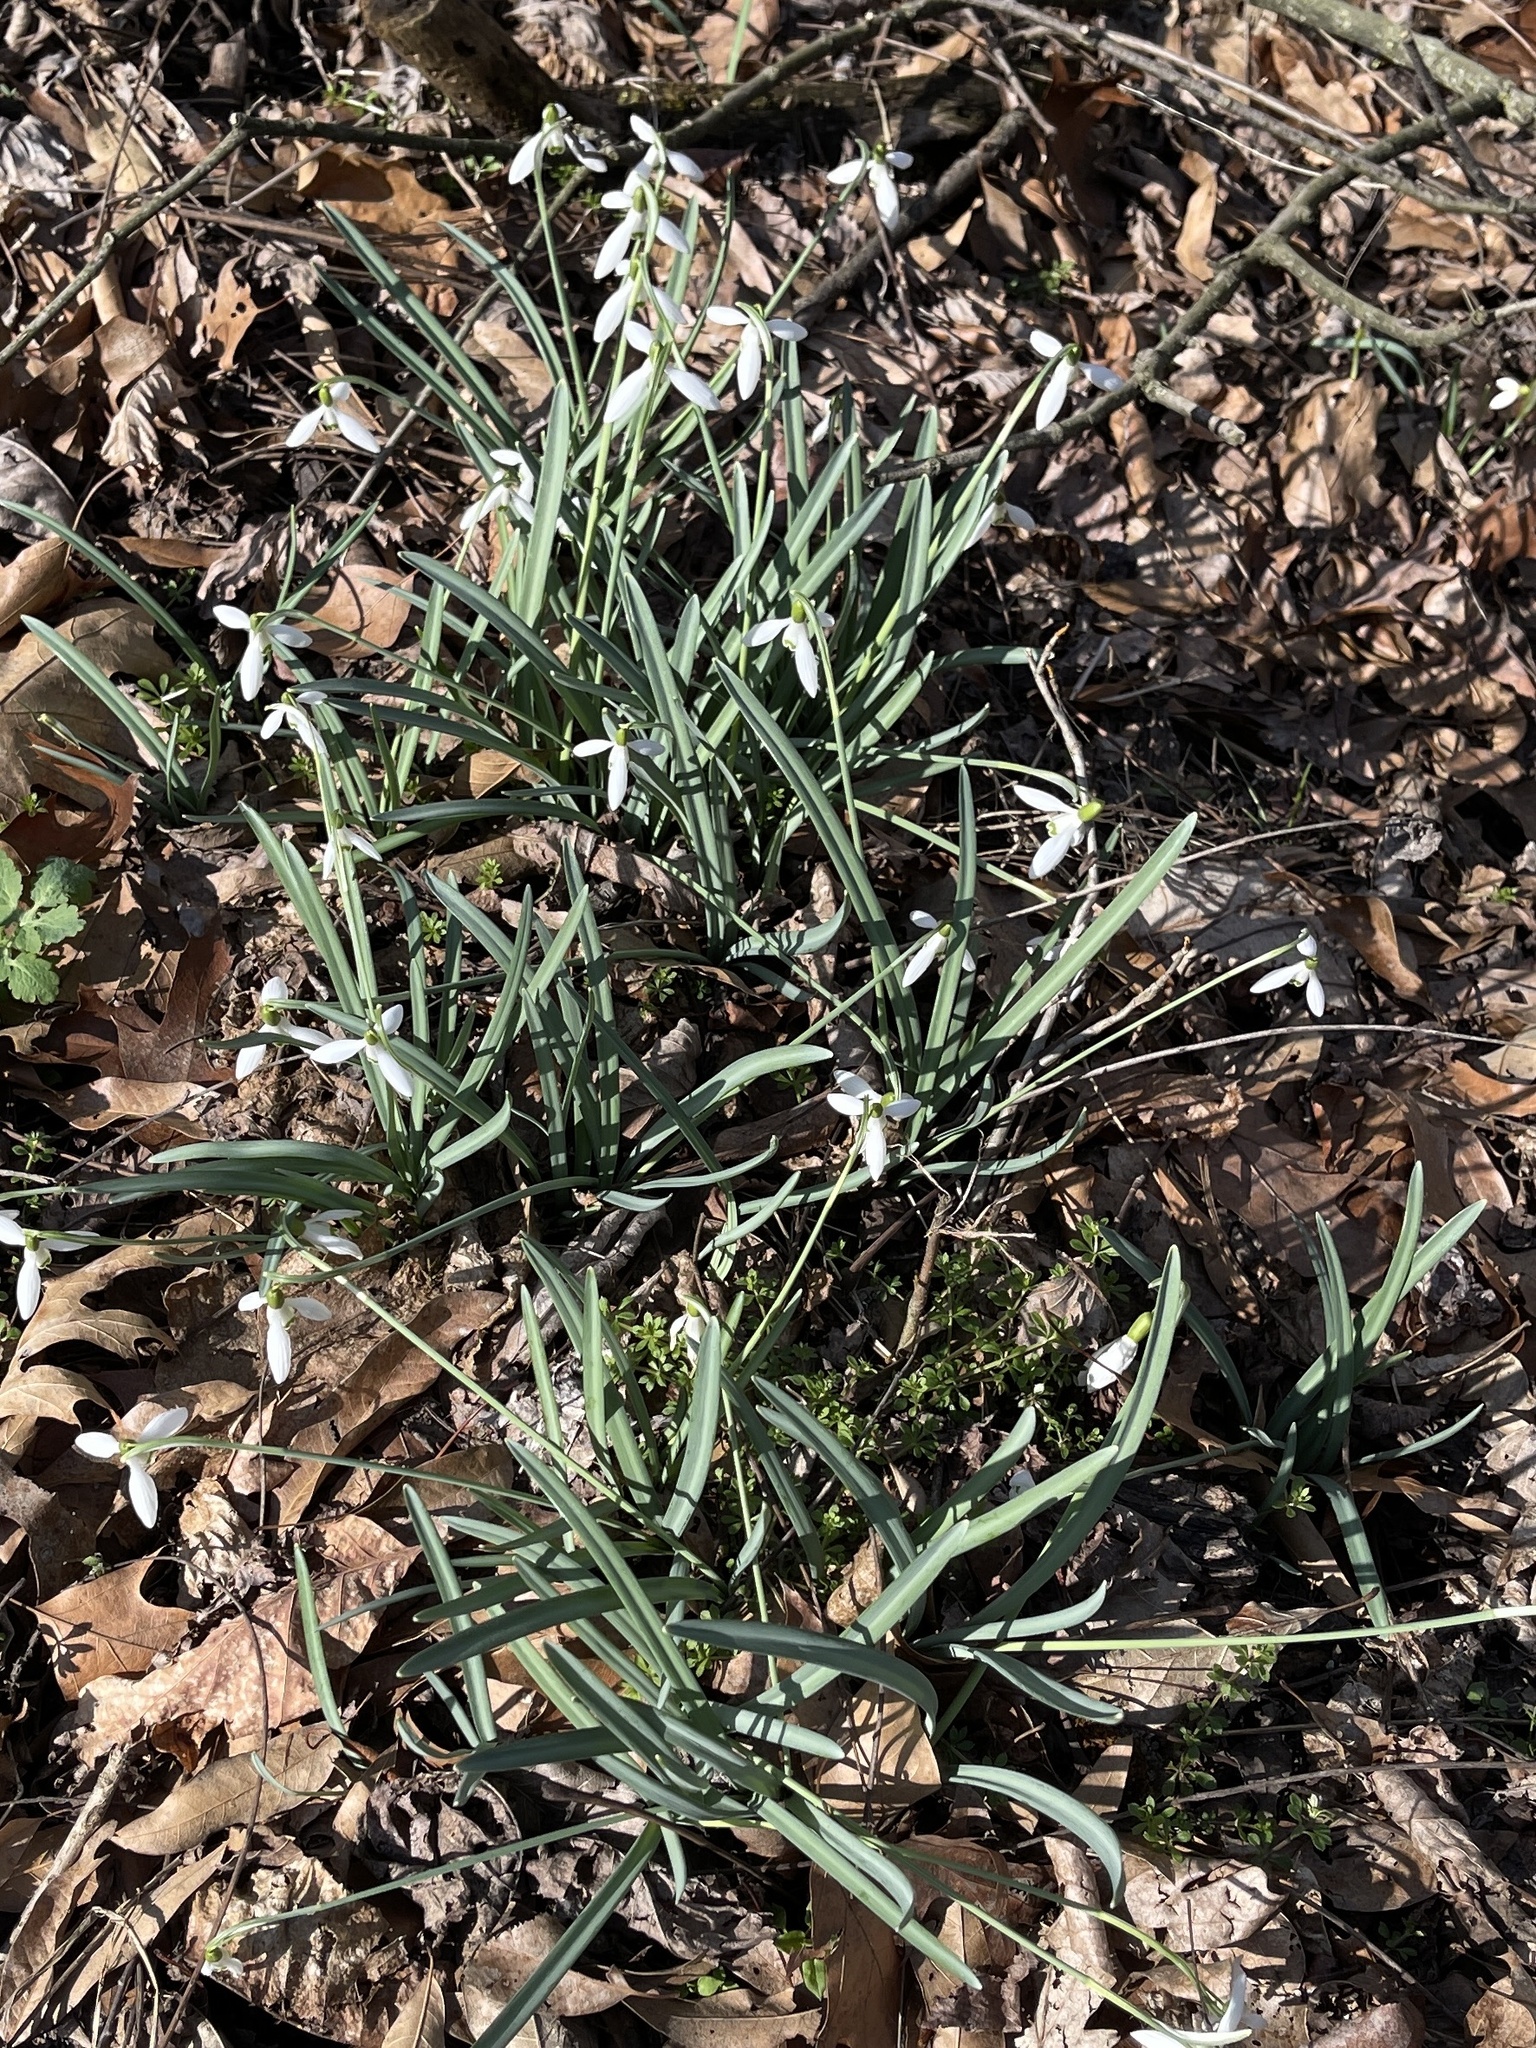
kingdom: Plantae
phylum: Tracheophyta
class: Liliopsida
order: Asparagales
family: Amaryllidaceae
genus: Galanthus
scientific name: Galanthus nivalis
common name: Snowdrop
